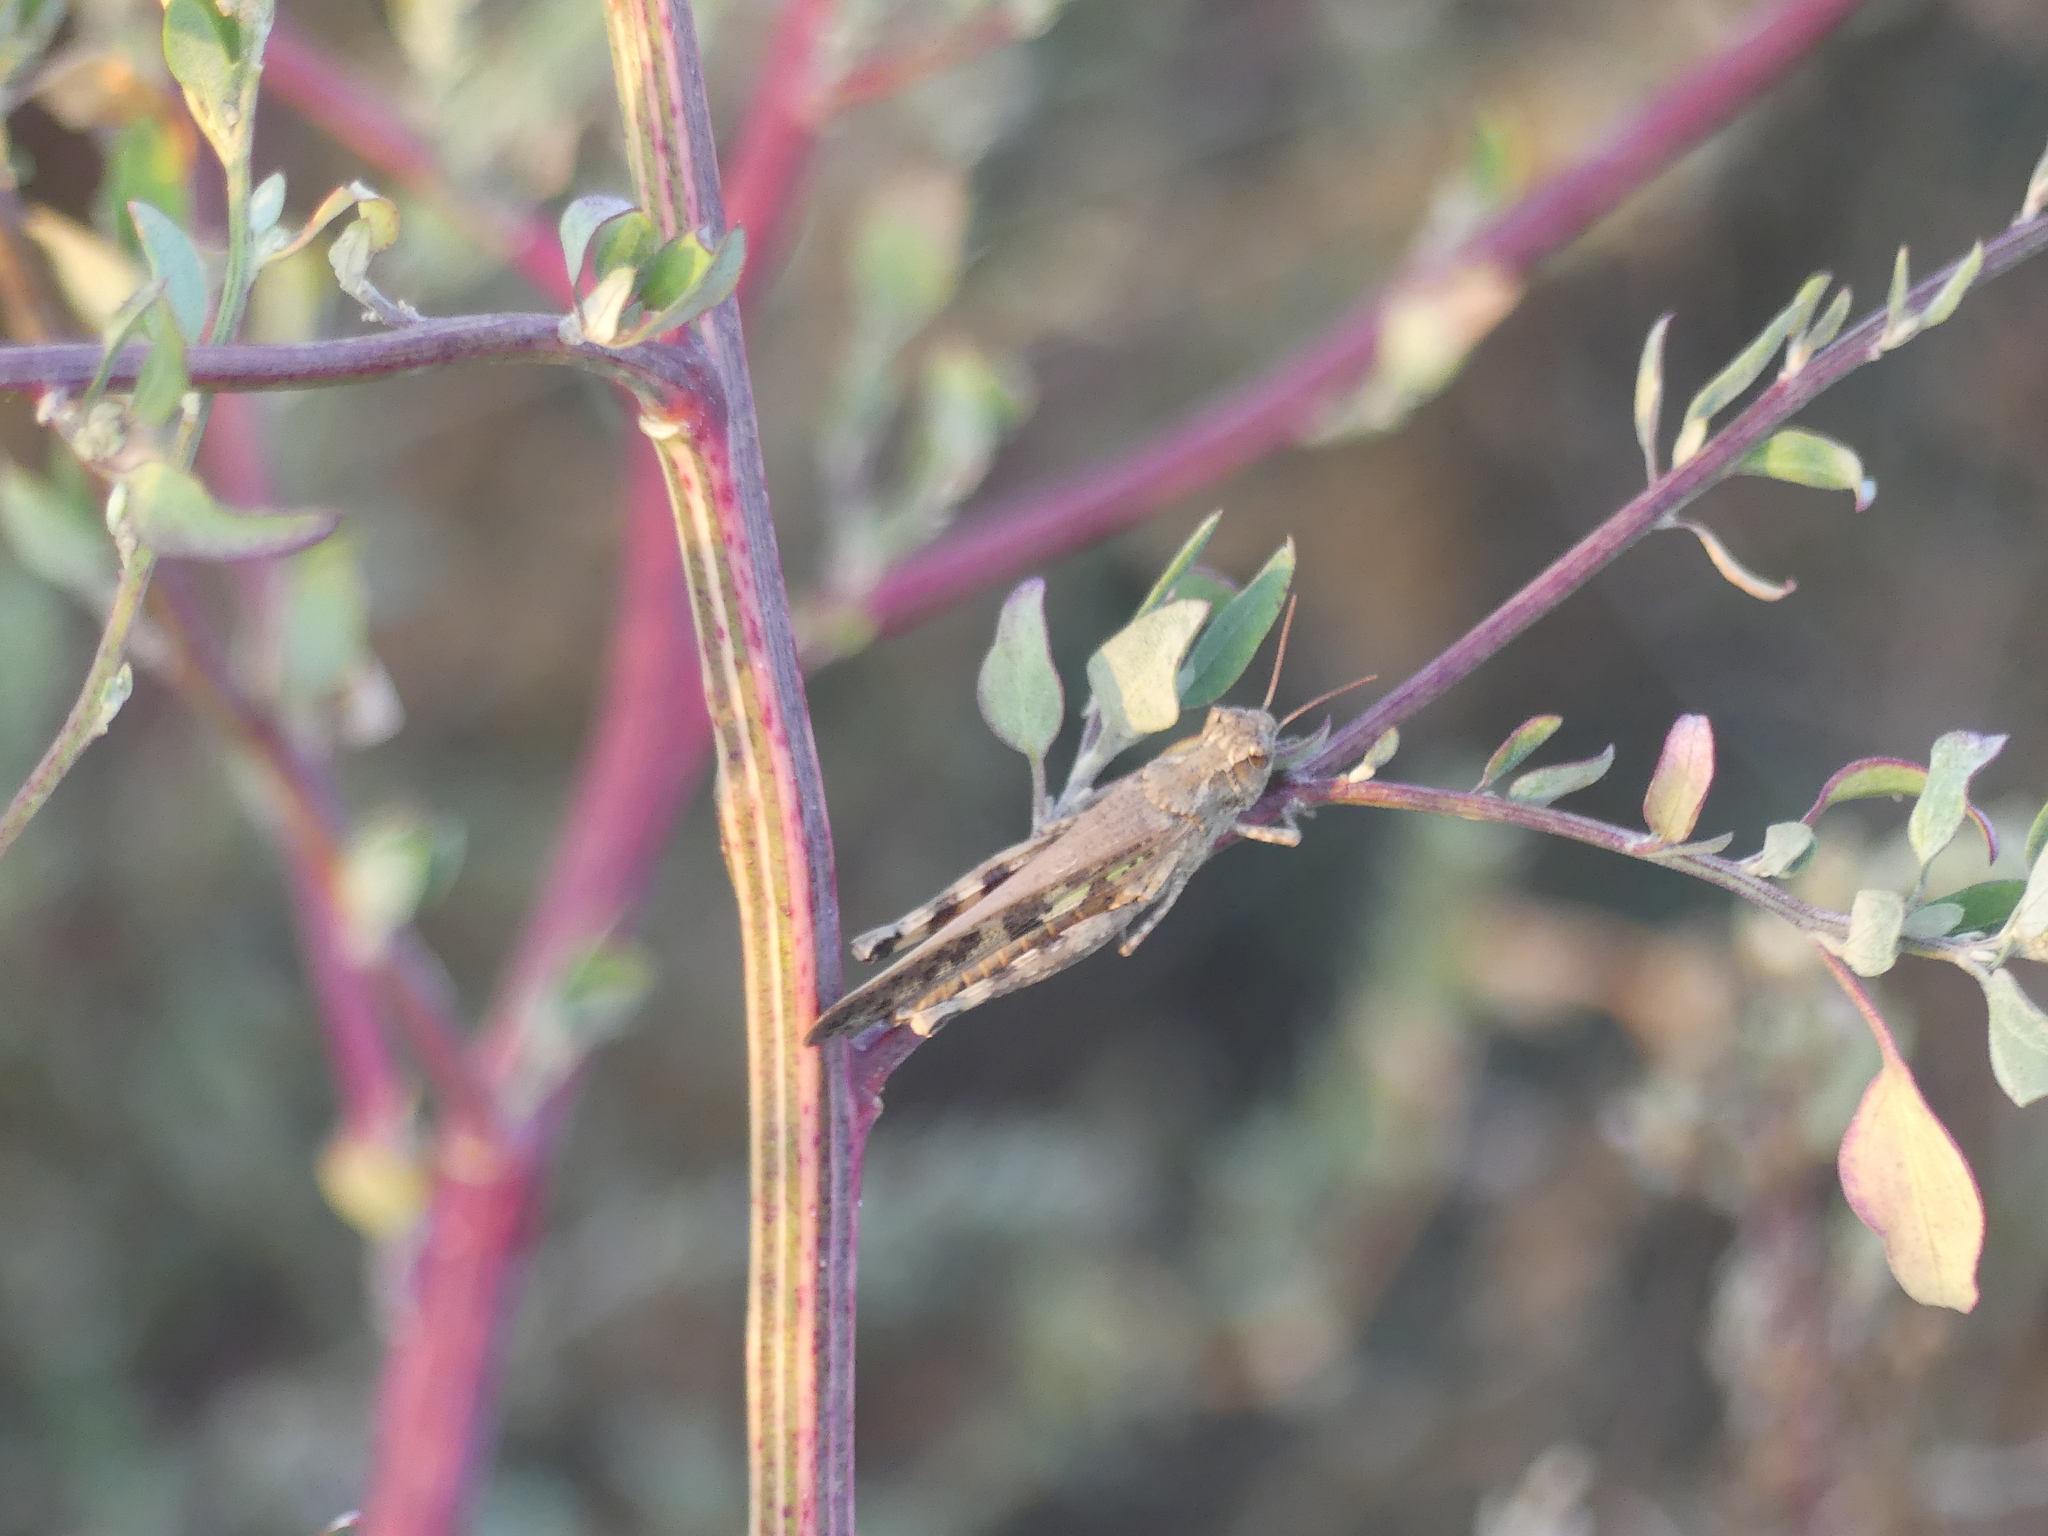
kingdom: Animalia
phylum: Arthropoda
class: Insecta
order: Orthoptera
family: Acrididae
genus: Aiolopus
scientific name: Aiolopus strepens
